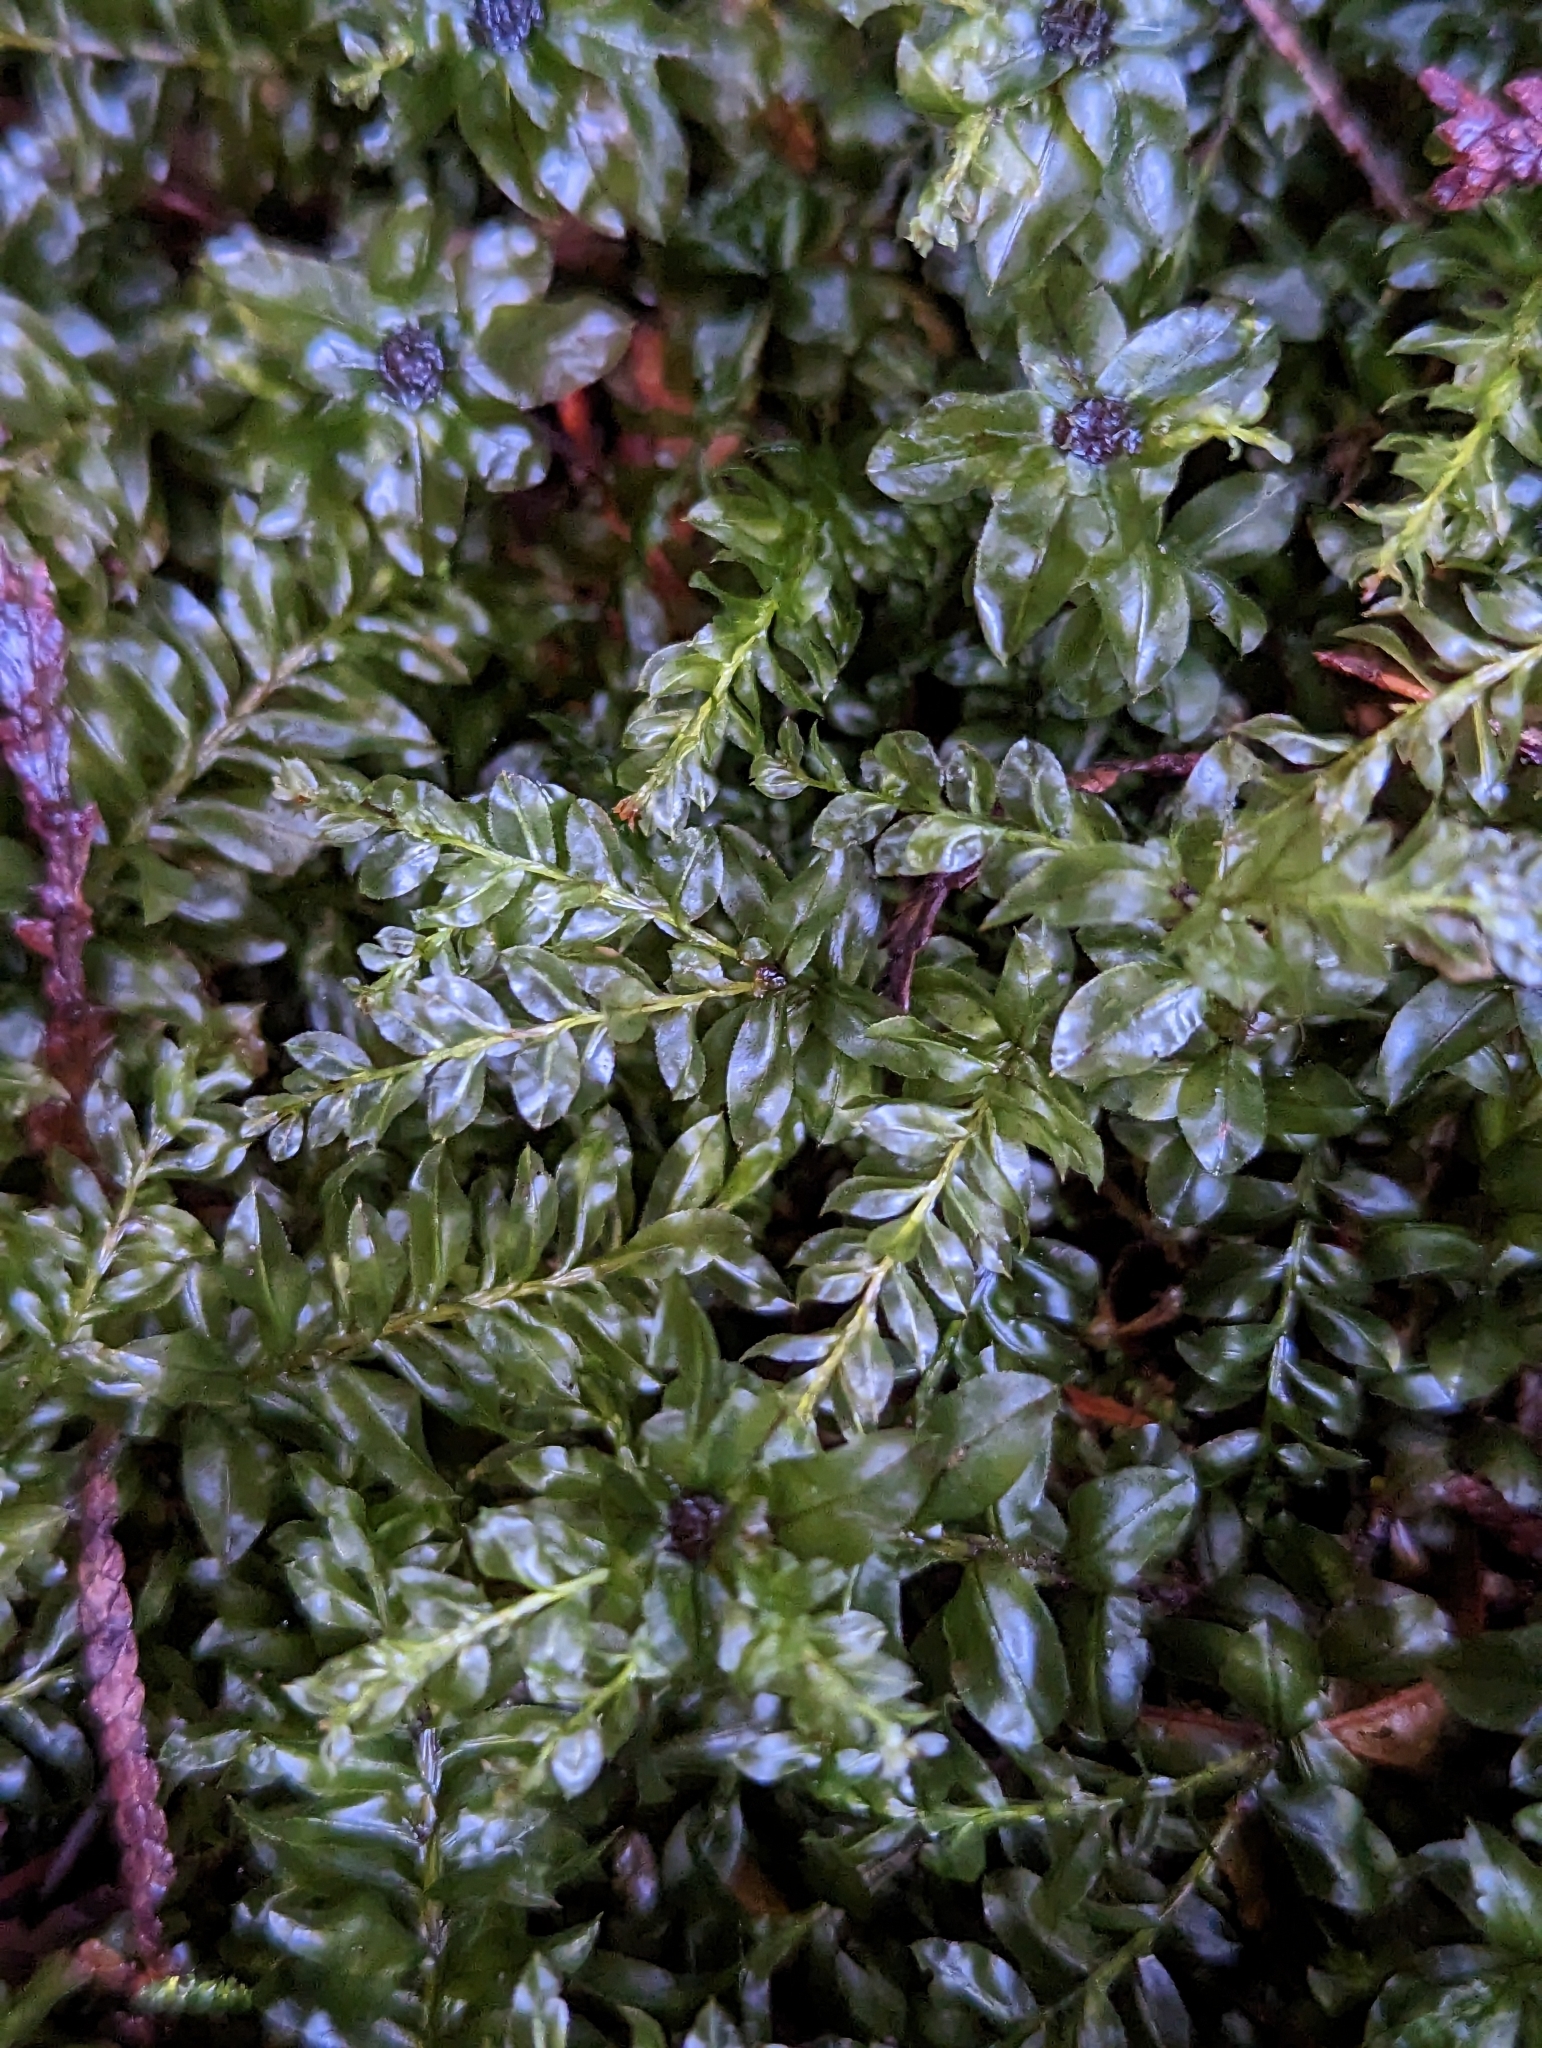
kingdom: Plantae
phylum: Bryophyta
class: Bryopsida
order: Bryales
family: Mniaceae
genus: Plagiomnium
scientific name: Plagiomnium insigne
